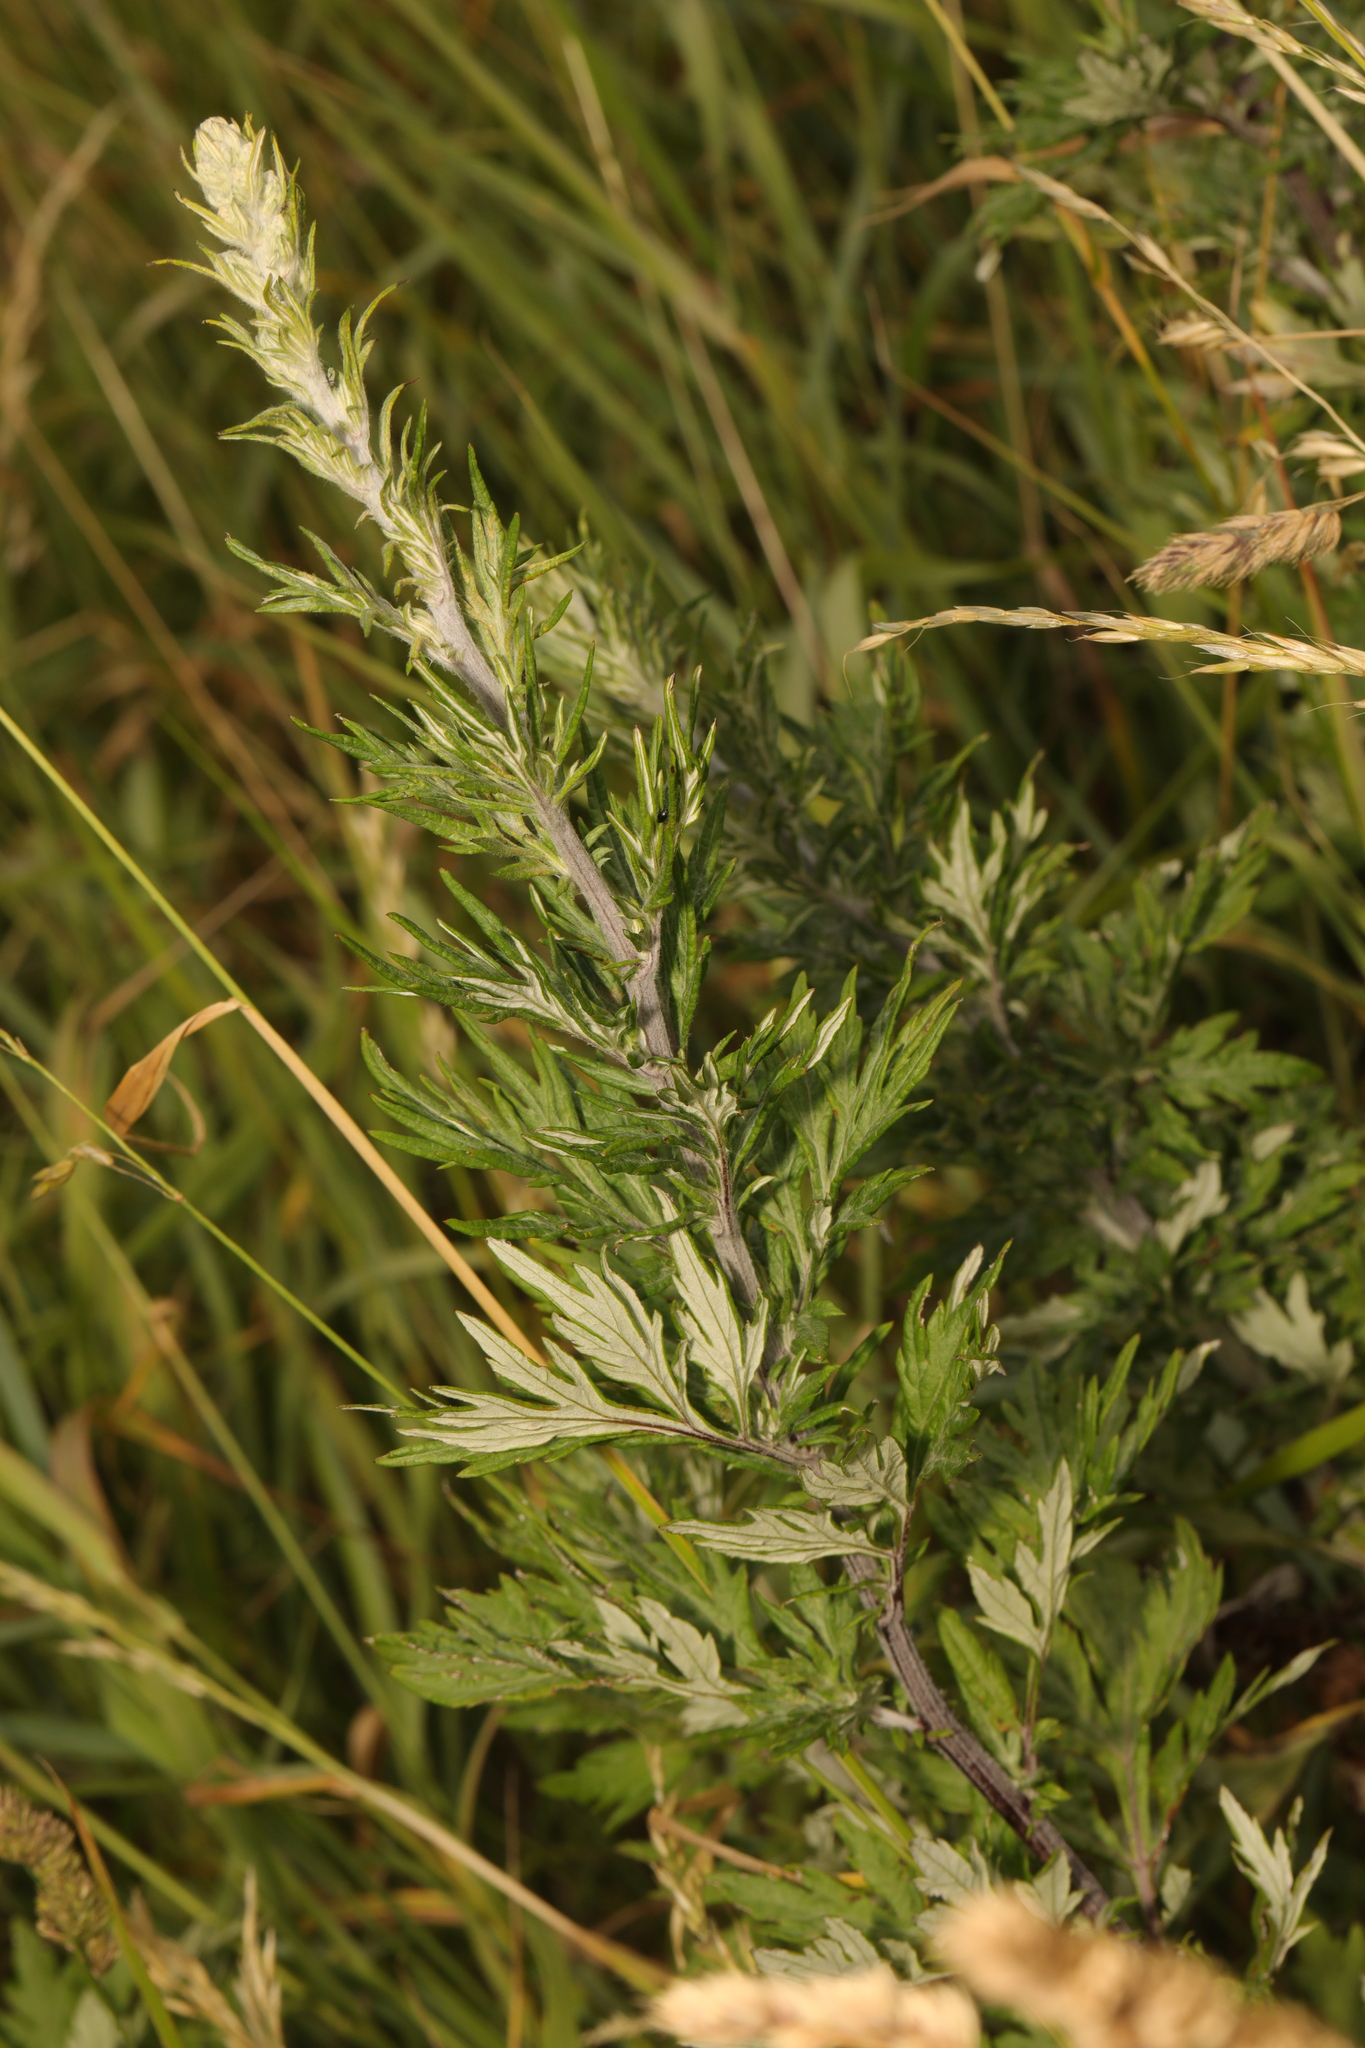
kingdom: Plantae
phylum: Tracheophyta
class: Magnoliopsida
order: Asterales
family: Asteraceae
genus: Artemisia
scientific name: Artemisia vulgaris
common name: Mugwort
